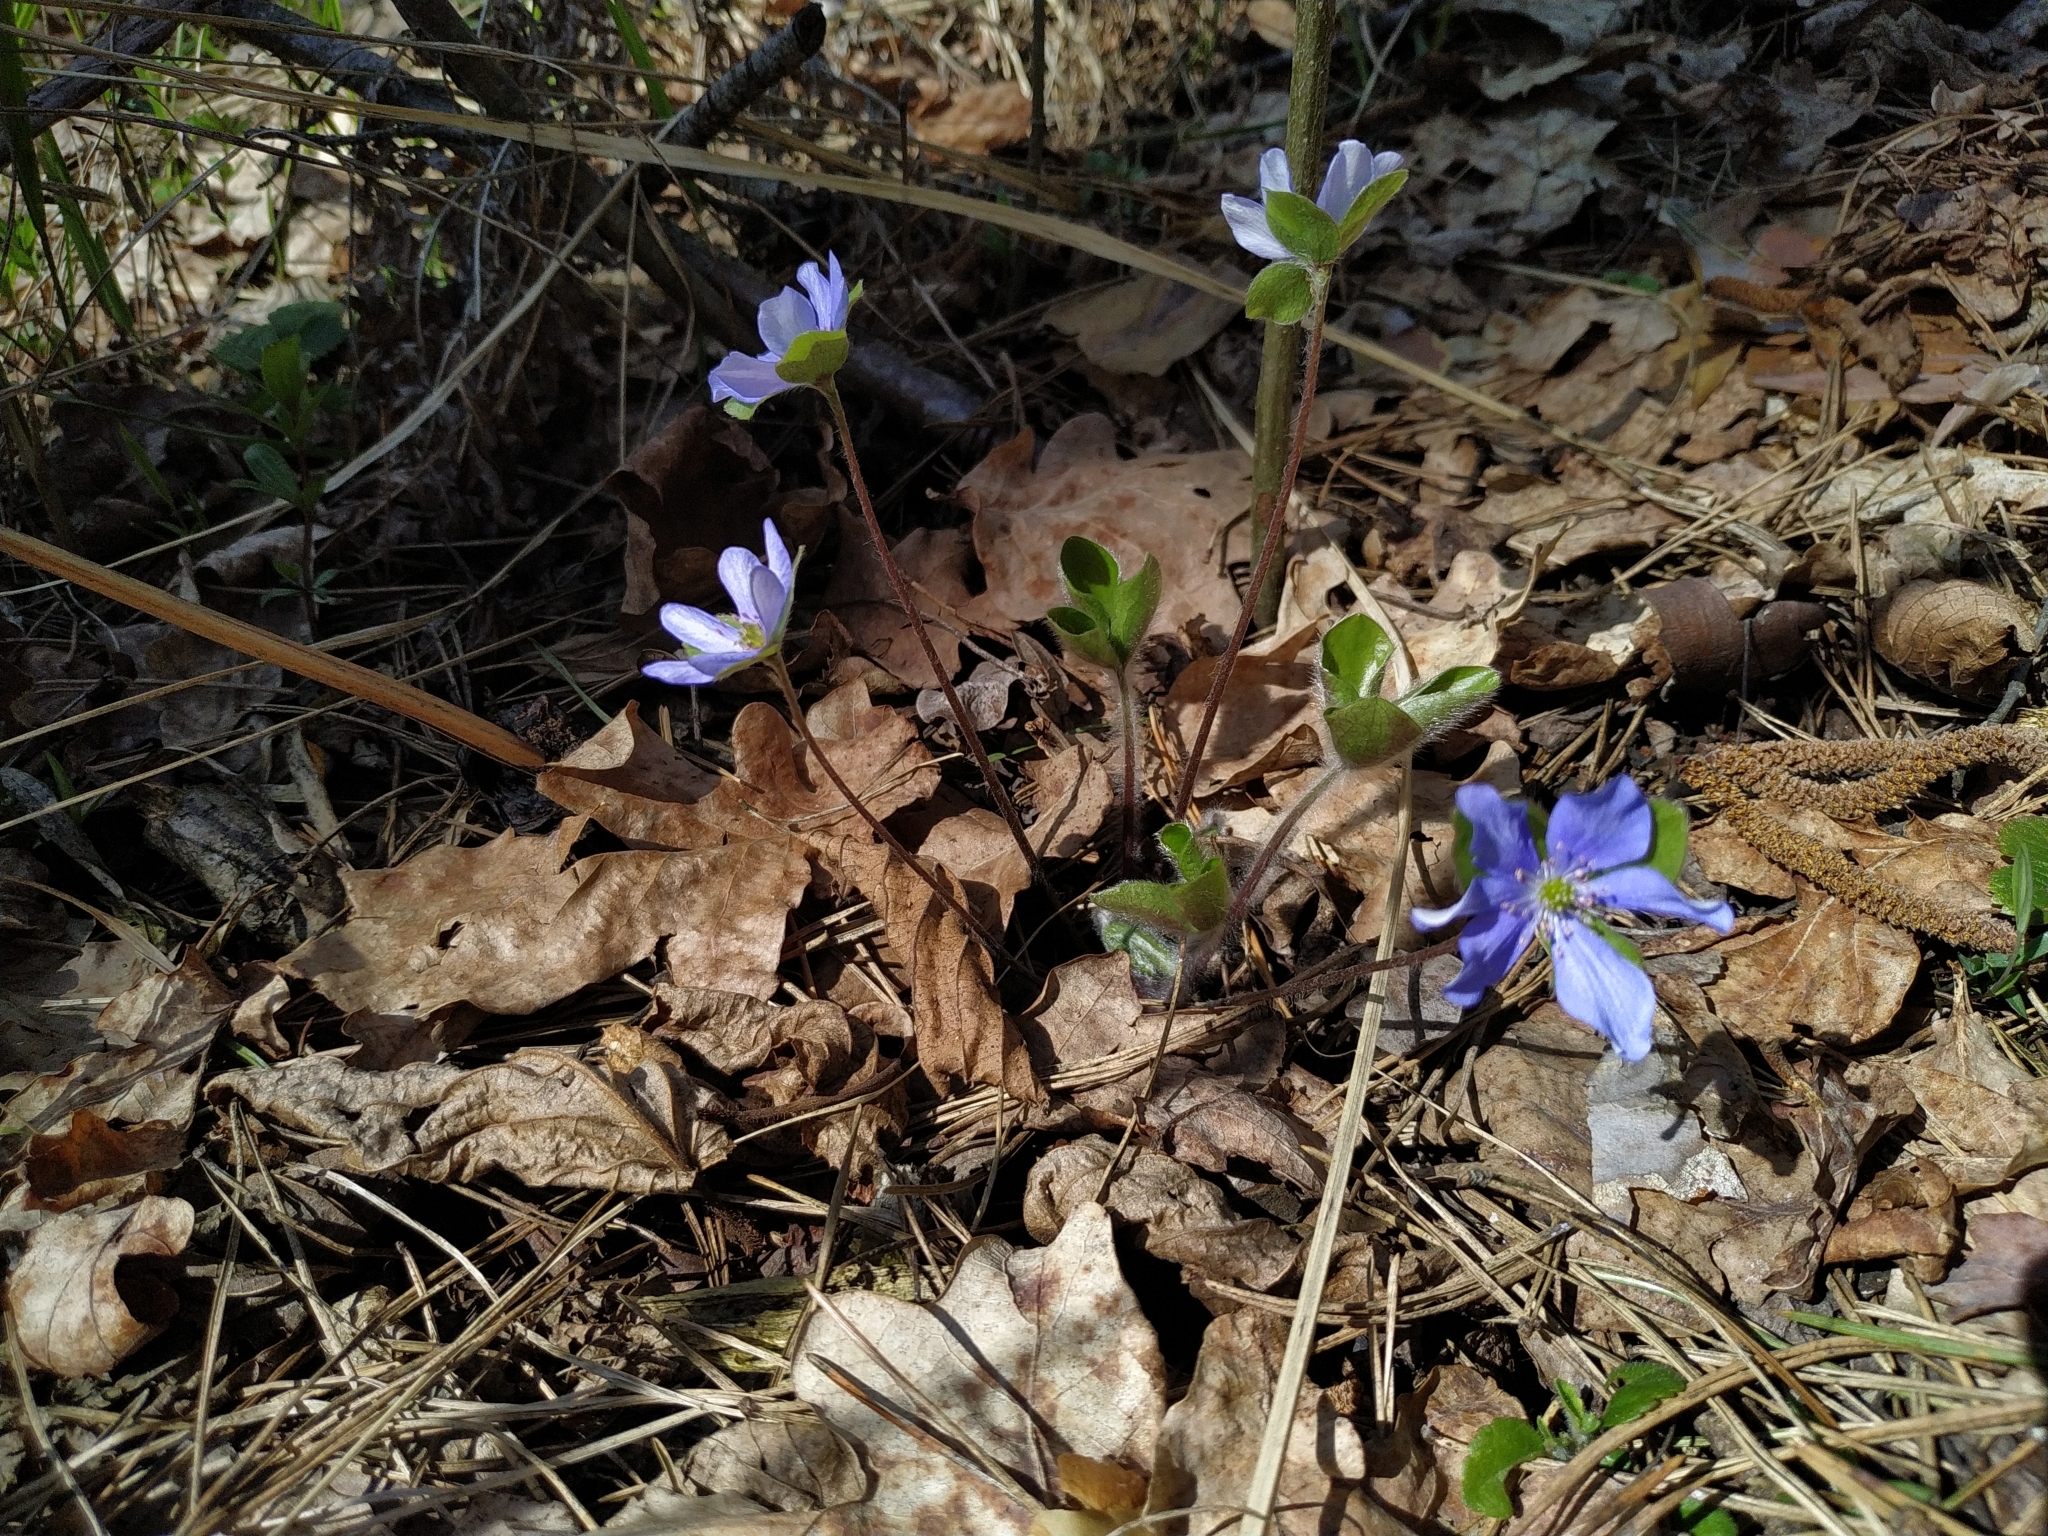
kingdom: Plantae
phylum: Tracheophyta
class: Magnoliopsida
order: Ranunculales
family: Ranunculaceae
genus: Hepatica
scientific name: Hepatica nobilis
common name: Liverleaf
